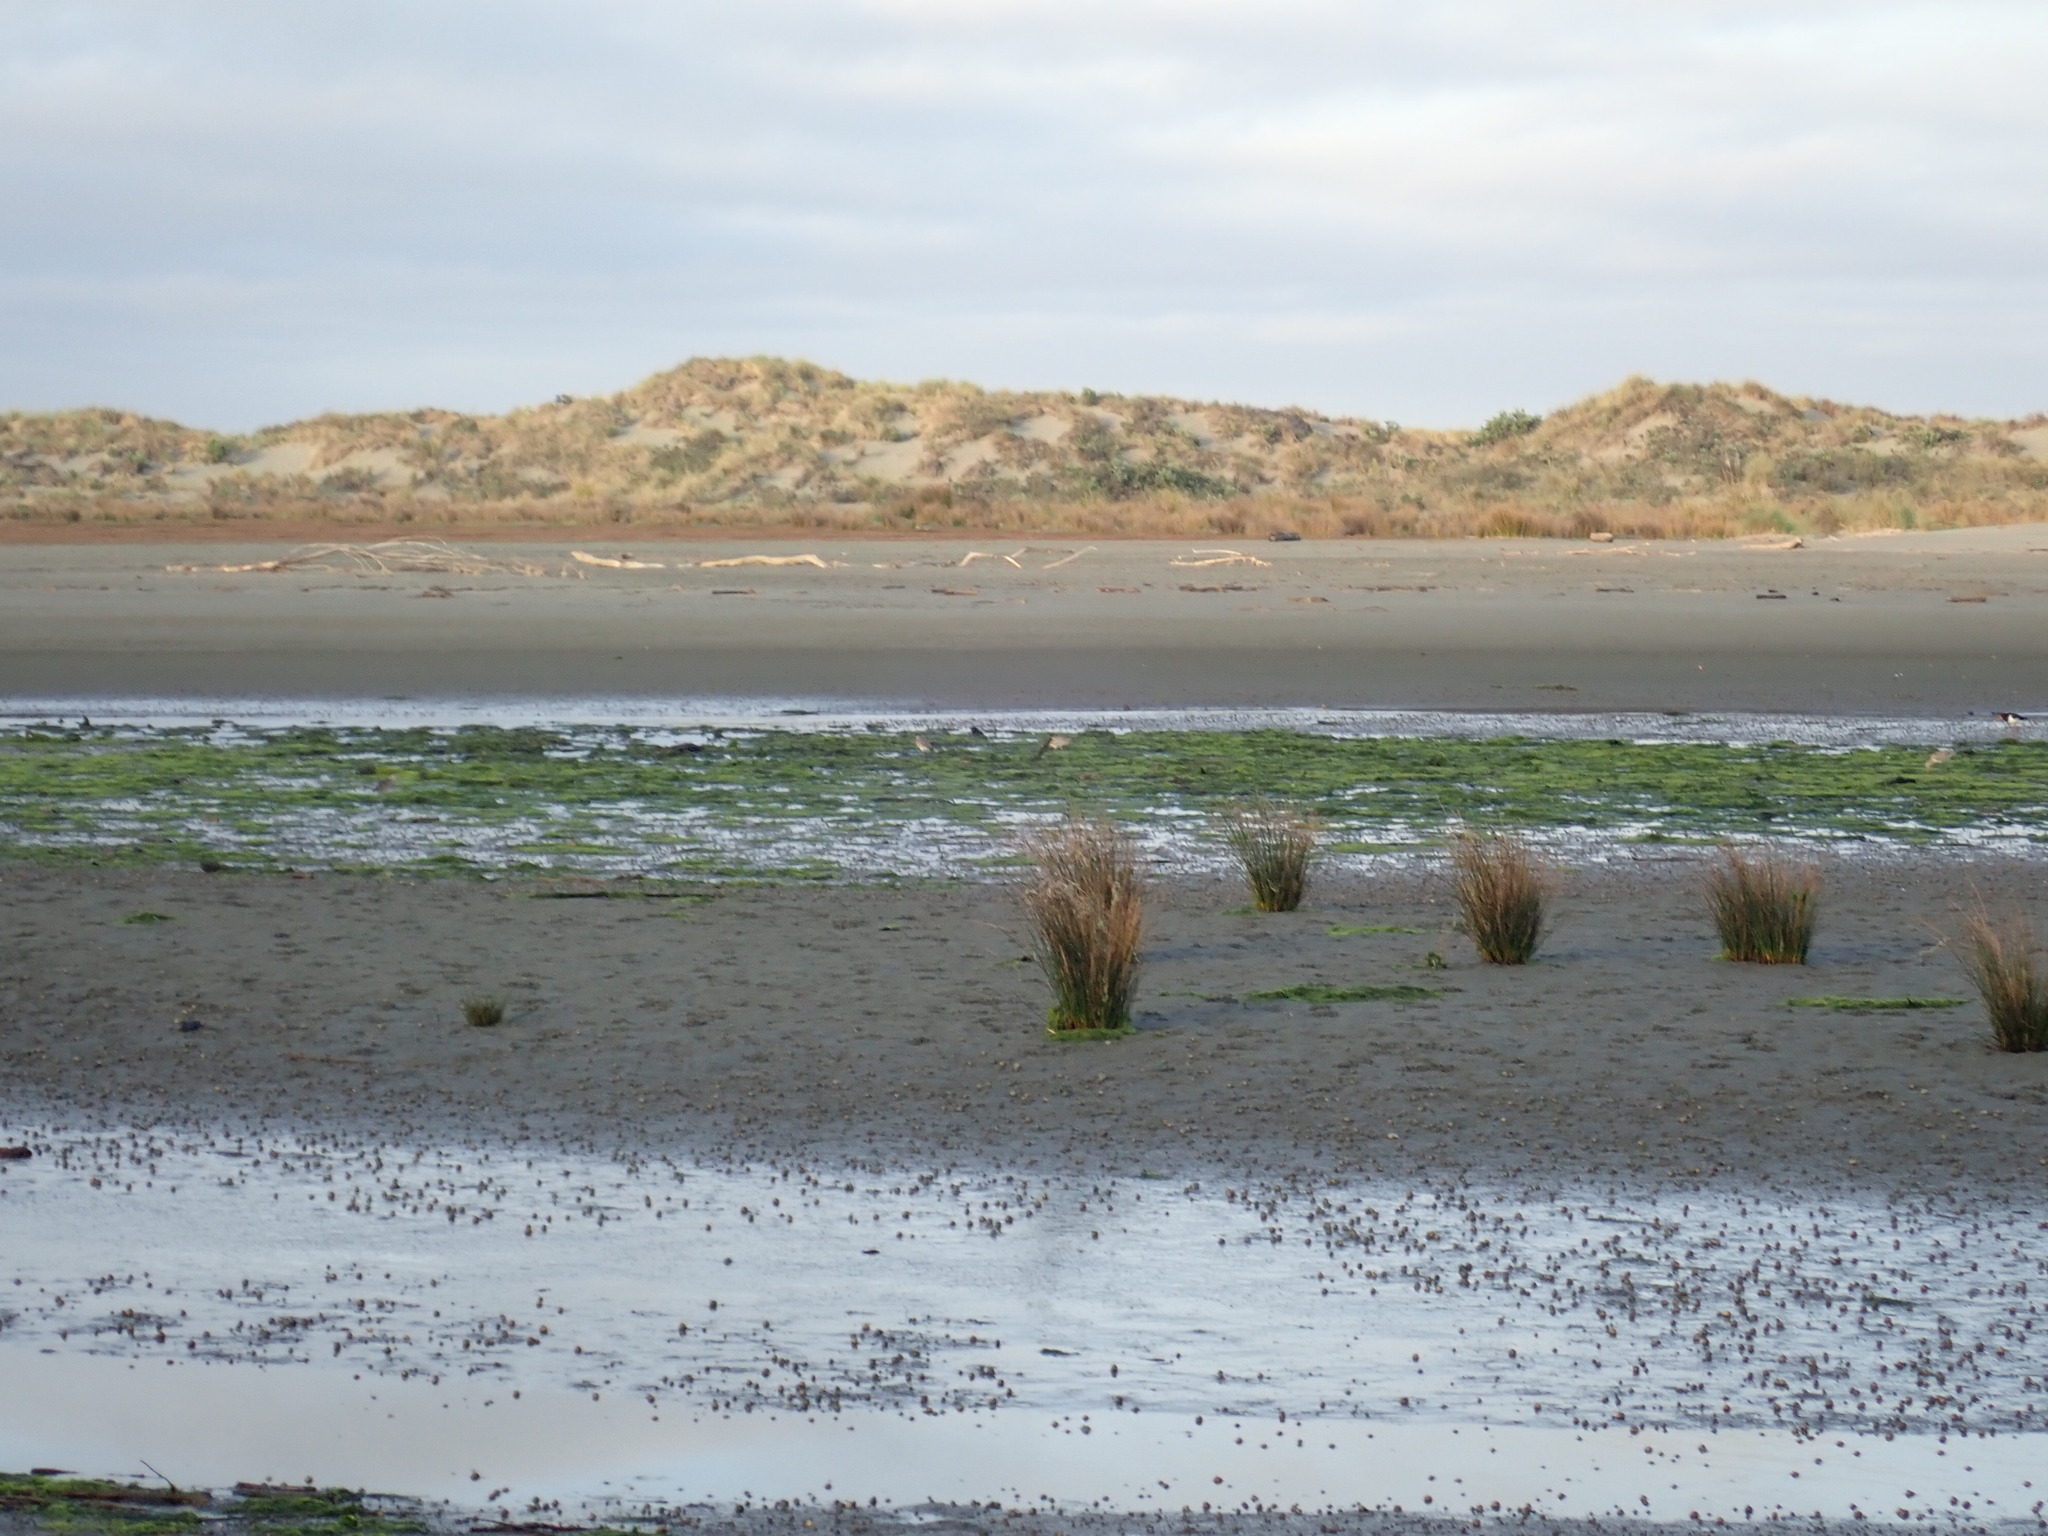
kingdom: Animalia
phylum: Chordata
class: Aves
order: Charadriiformes
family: Scolopacidae
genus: Limosa
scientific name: Limosa lapponica
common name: Bar-tailed godwit
